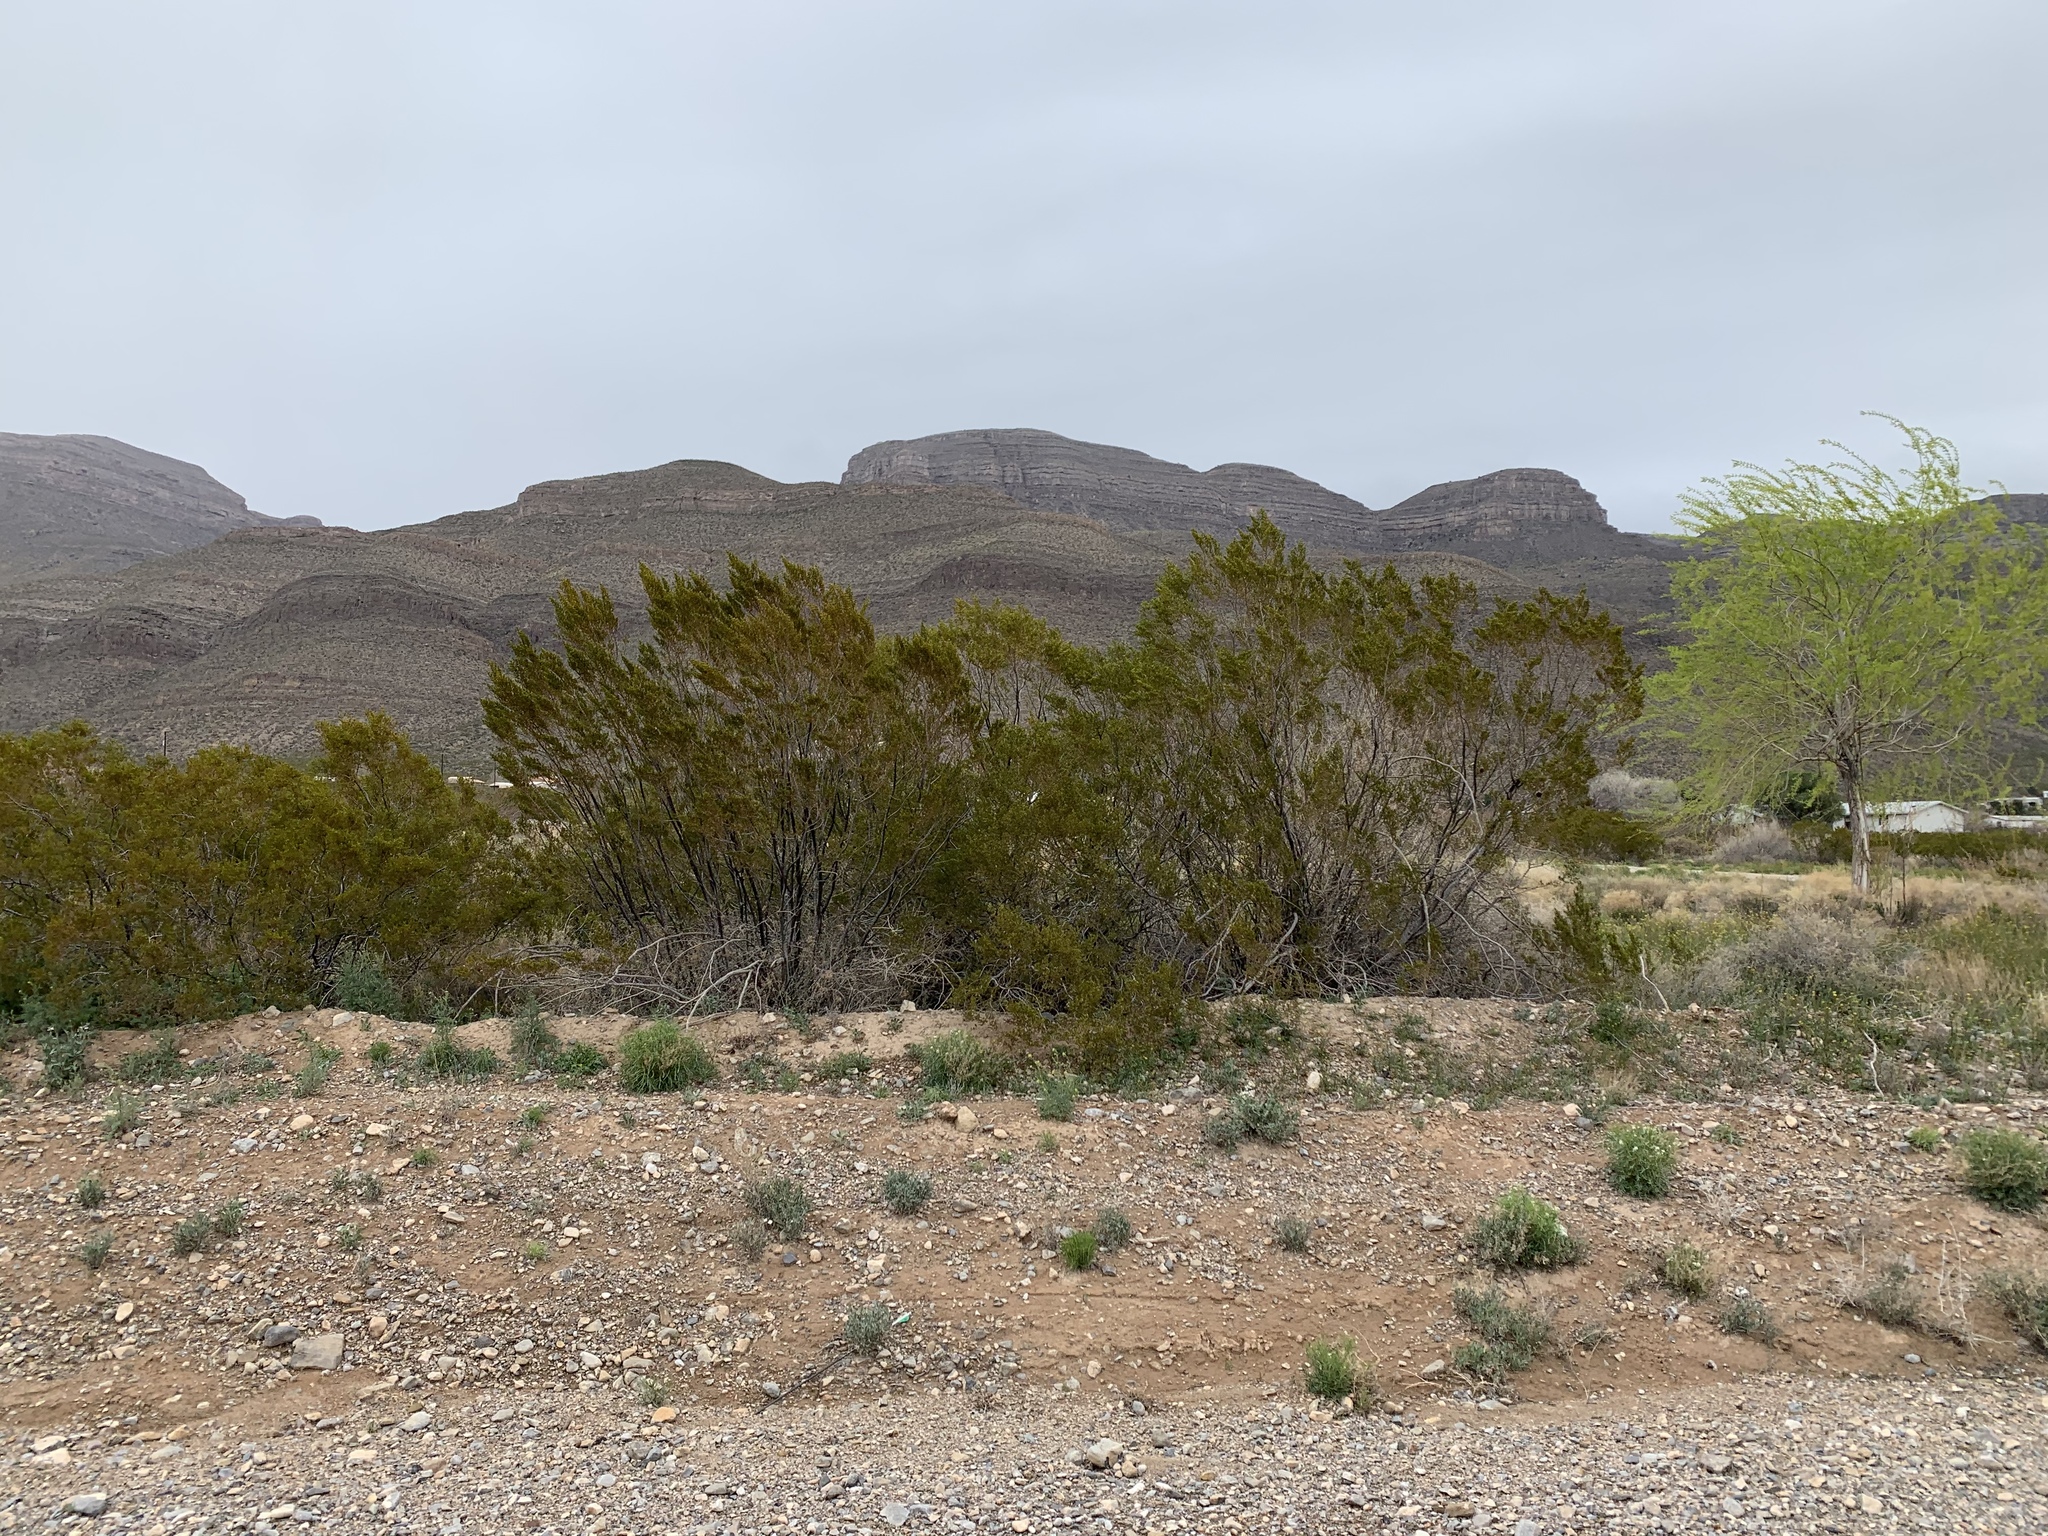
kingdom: Plantae
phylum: Tracheophyta
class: Magnoliopsida
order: Zygophyllales
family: Zygophyllaceae
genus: Larrea
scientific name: Larrea tridentata
